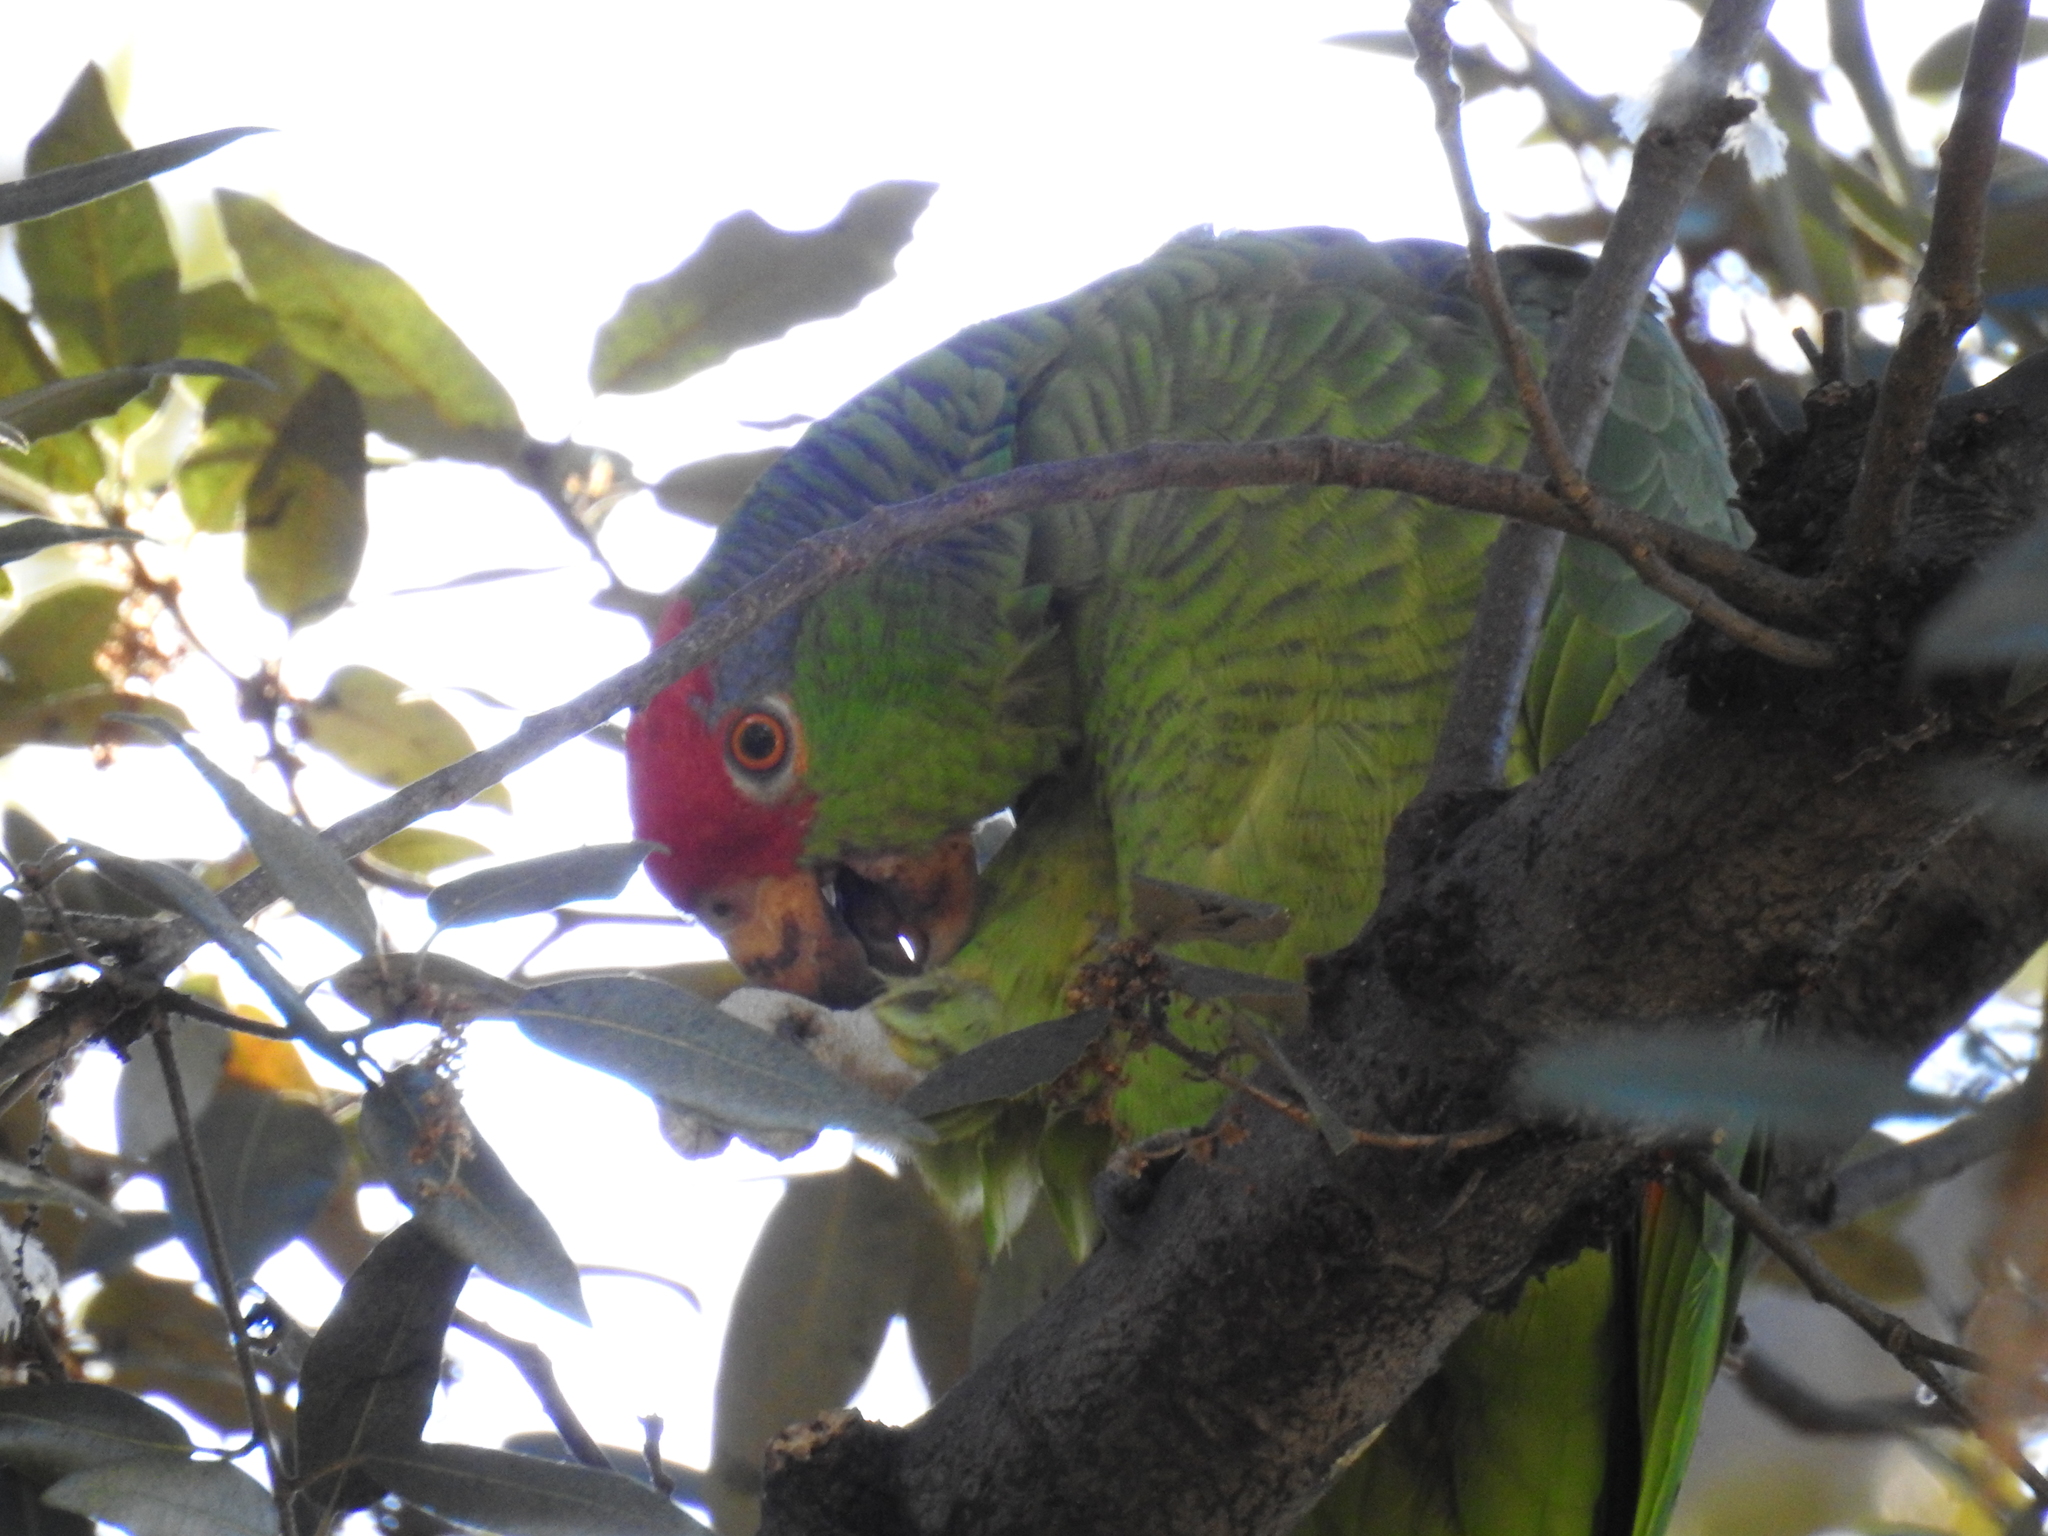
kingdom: Animalia
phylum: Chordata
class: Aves
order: Psittaciformes
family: Psittacidae
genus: Amazona
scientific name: Amazona viridigenalis
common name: Red-crowned amazon
